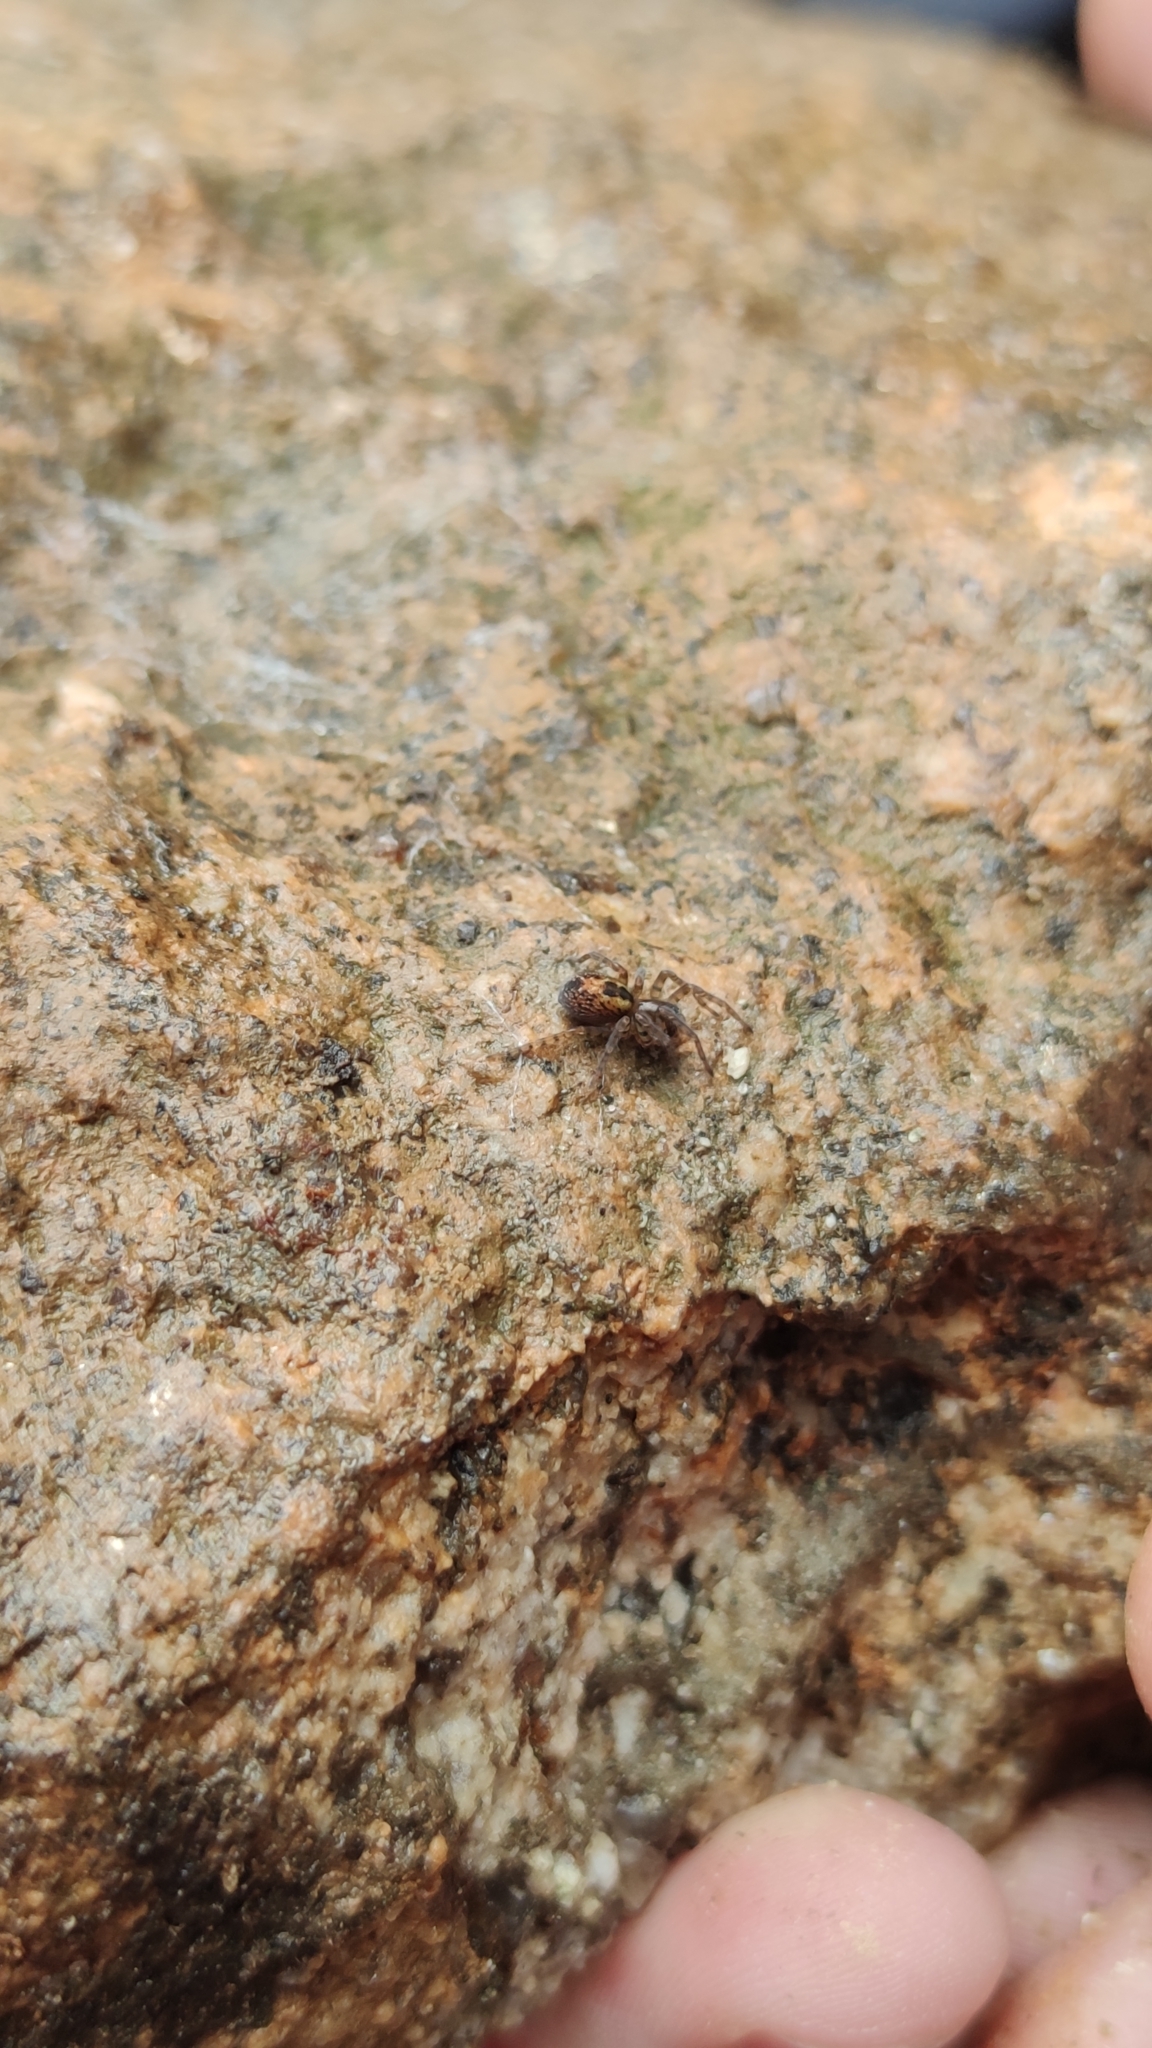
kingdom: Animalia
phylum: Arthropoda
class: Arachnida
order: Araneae
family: Amaurobiidae
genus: Amaurobius
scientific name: Amaurobius fenestralis
